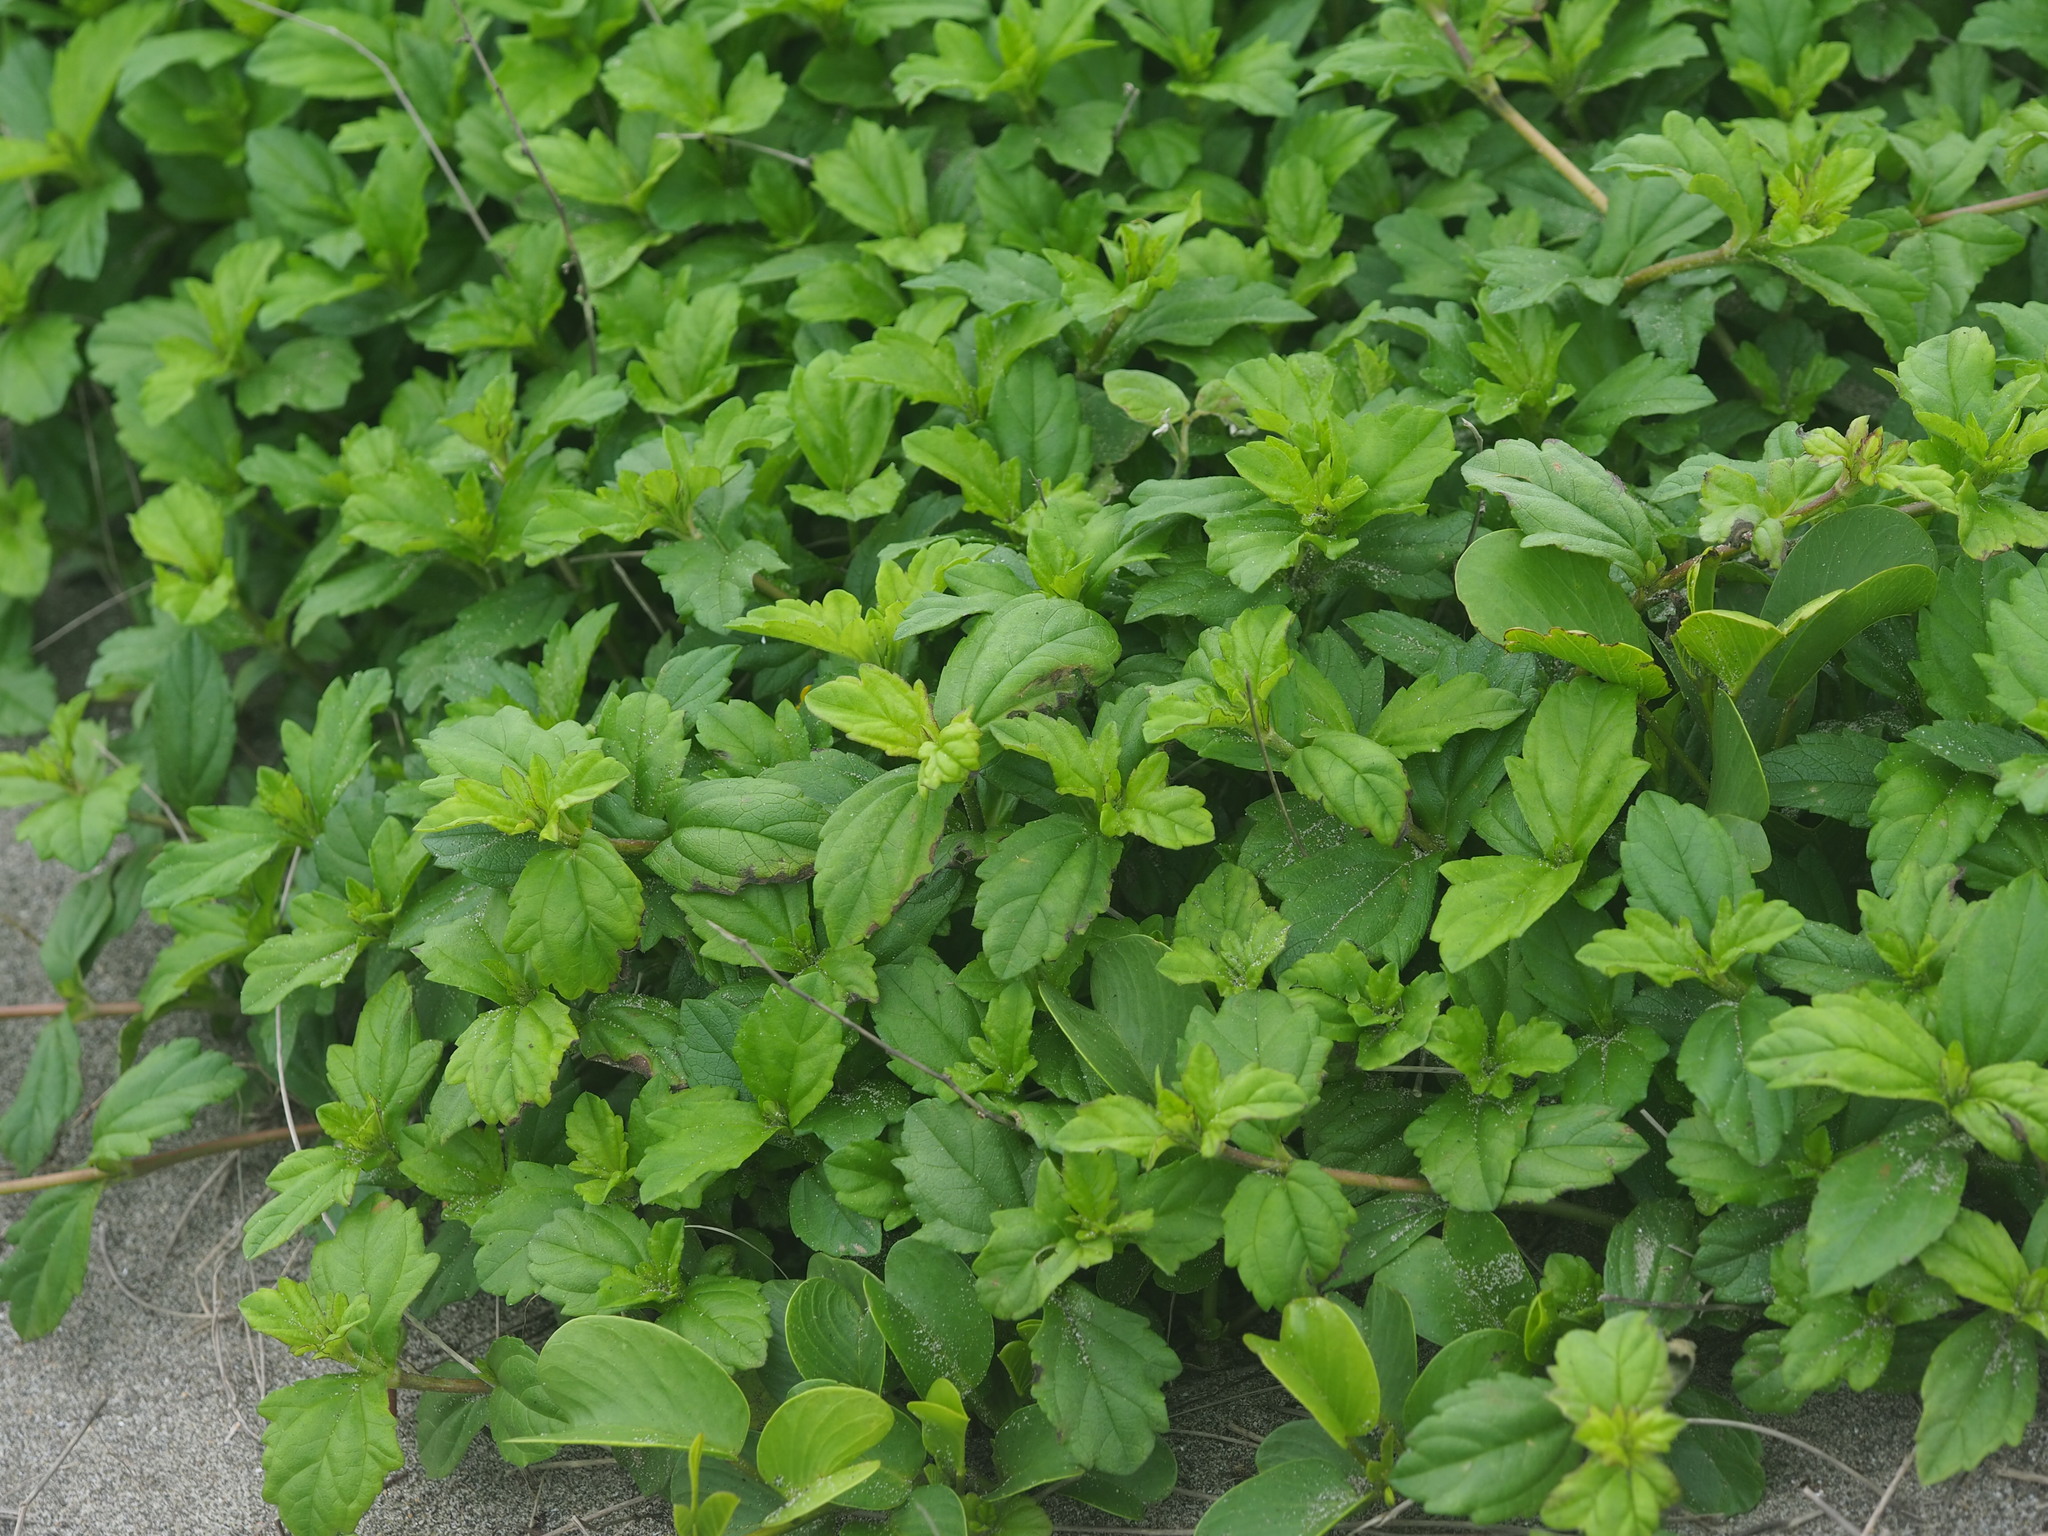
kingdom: Plantae
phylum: Tracheophyta
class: Magnoliopsida
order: Asterales
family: Asteraceae
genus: Sphagneticola
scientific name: Sphagneticola trilobata
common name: Bay biscayne creeping-oxeye
